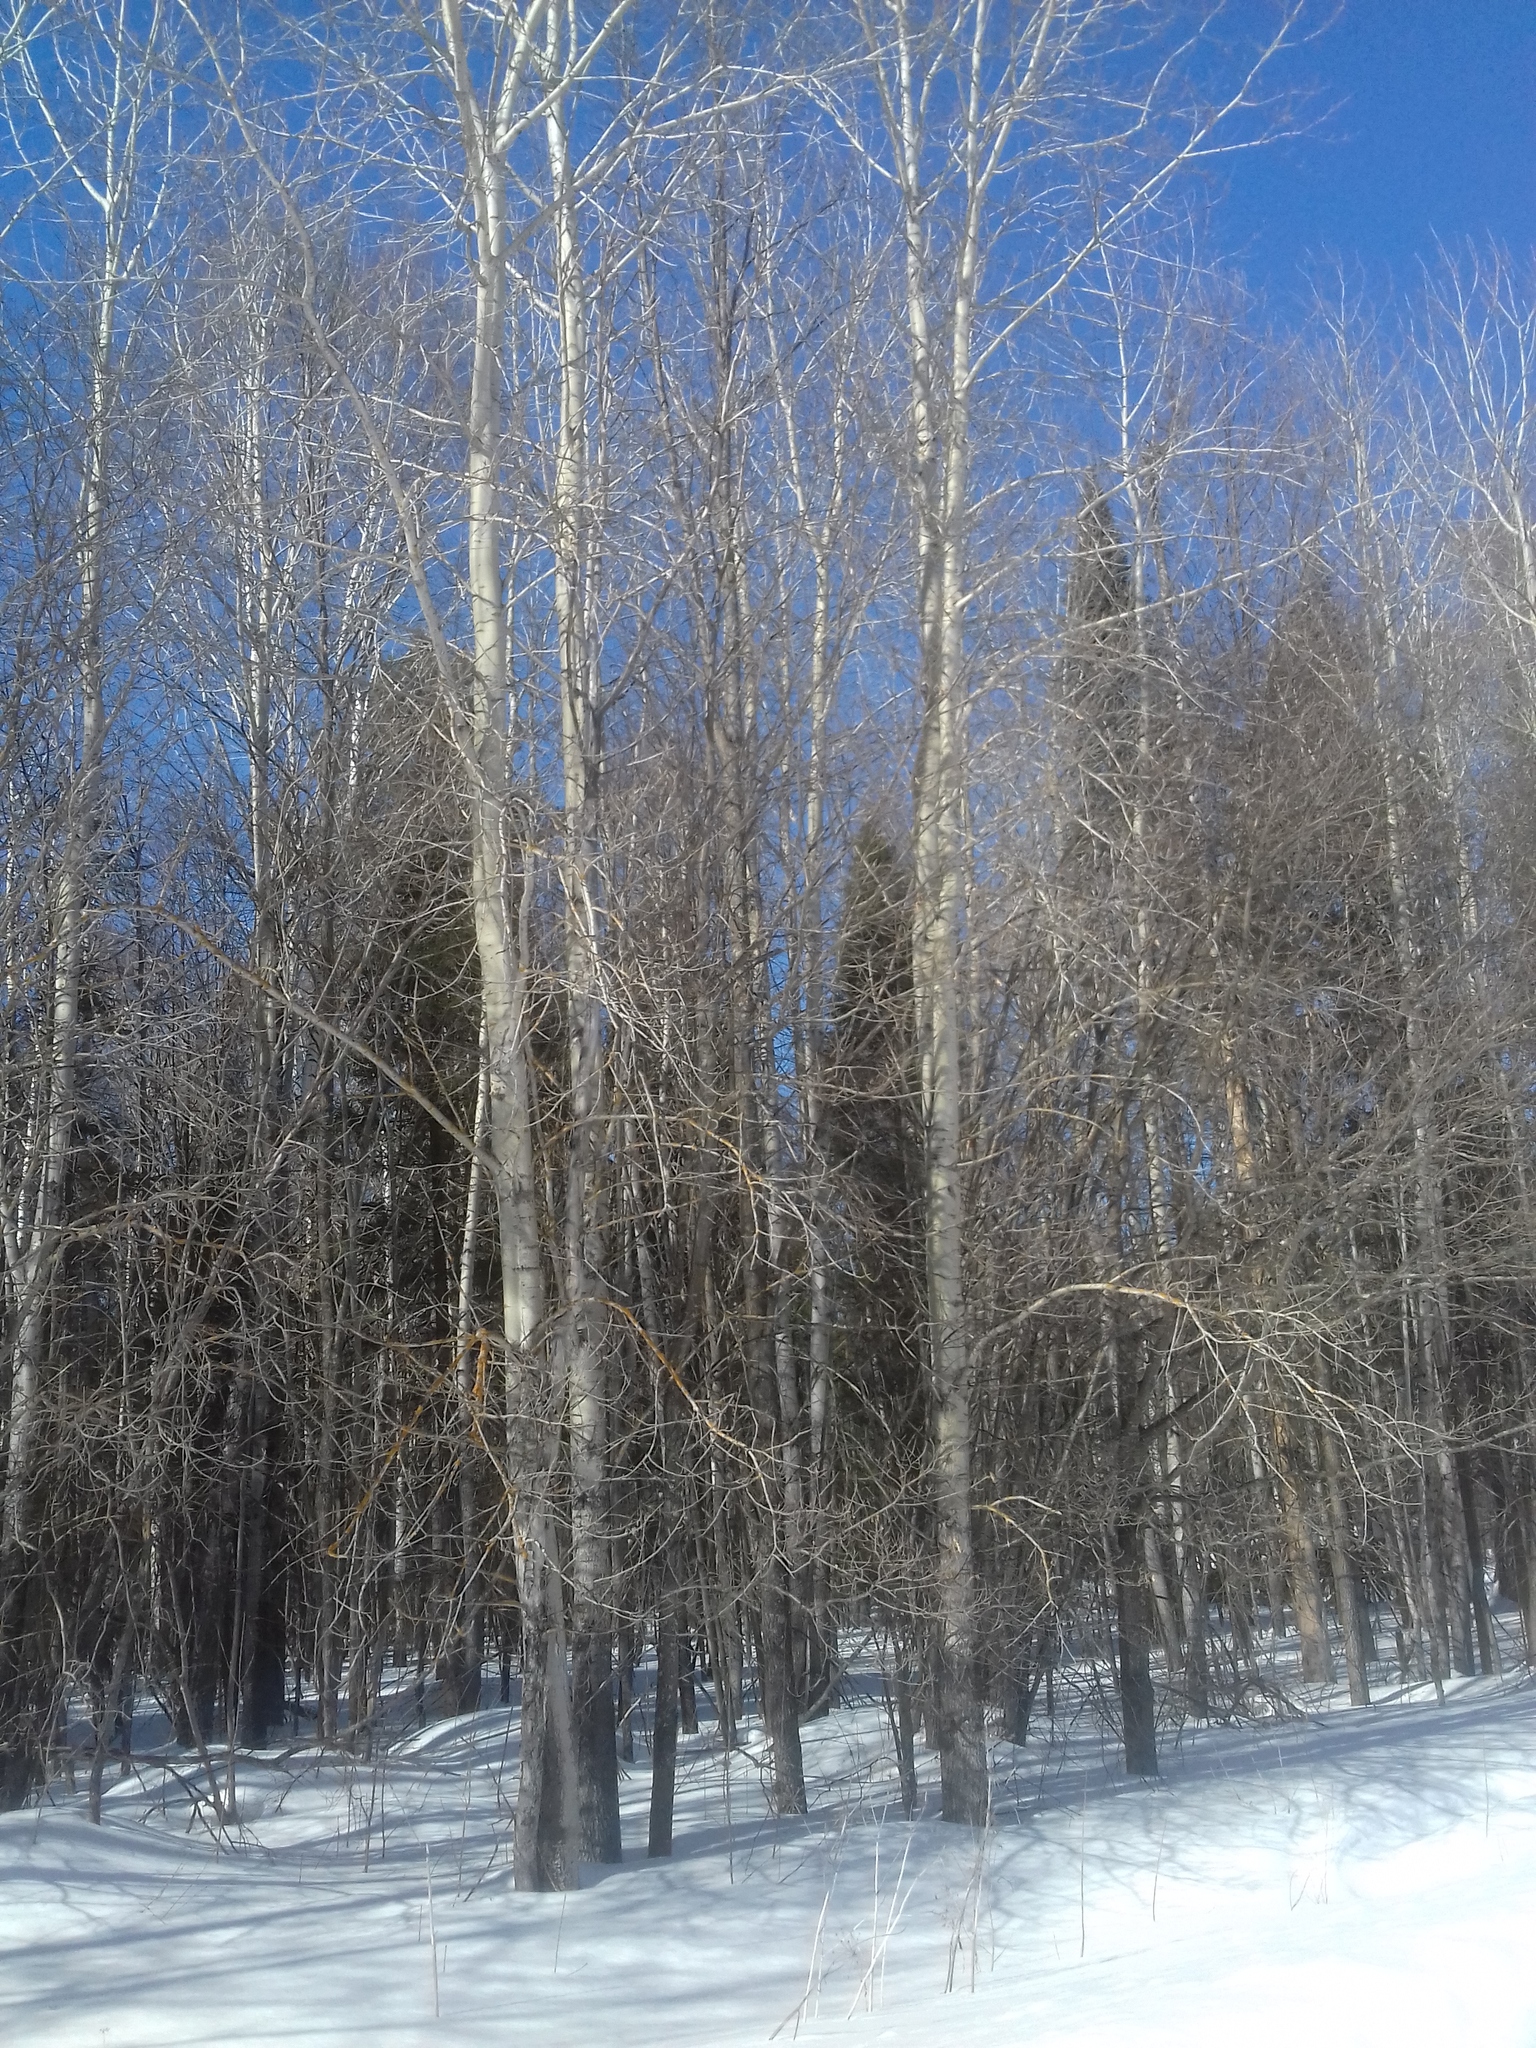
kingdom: Plantae
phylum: Tracheophyta
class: Magnoliopsida
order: Malpighiales
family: Salicaceae
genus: Populus
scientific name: Populus tremula
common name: European aspen
